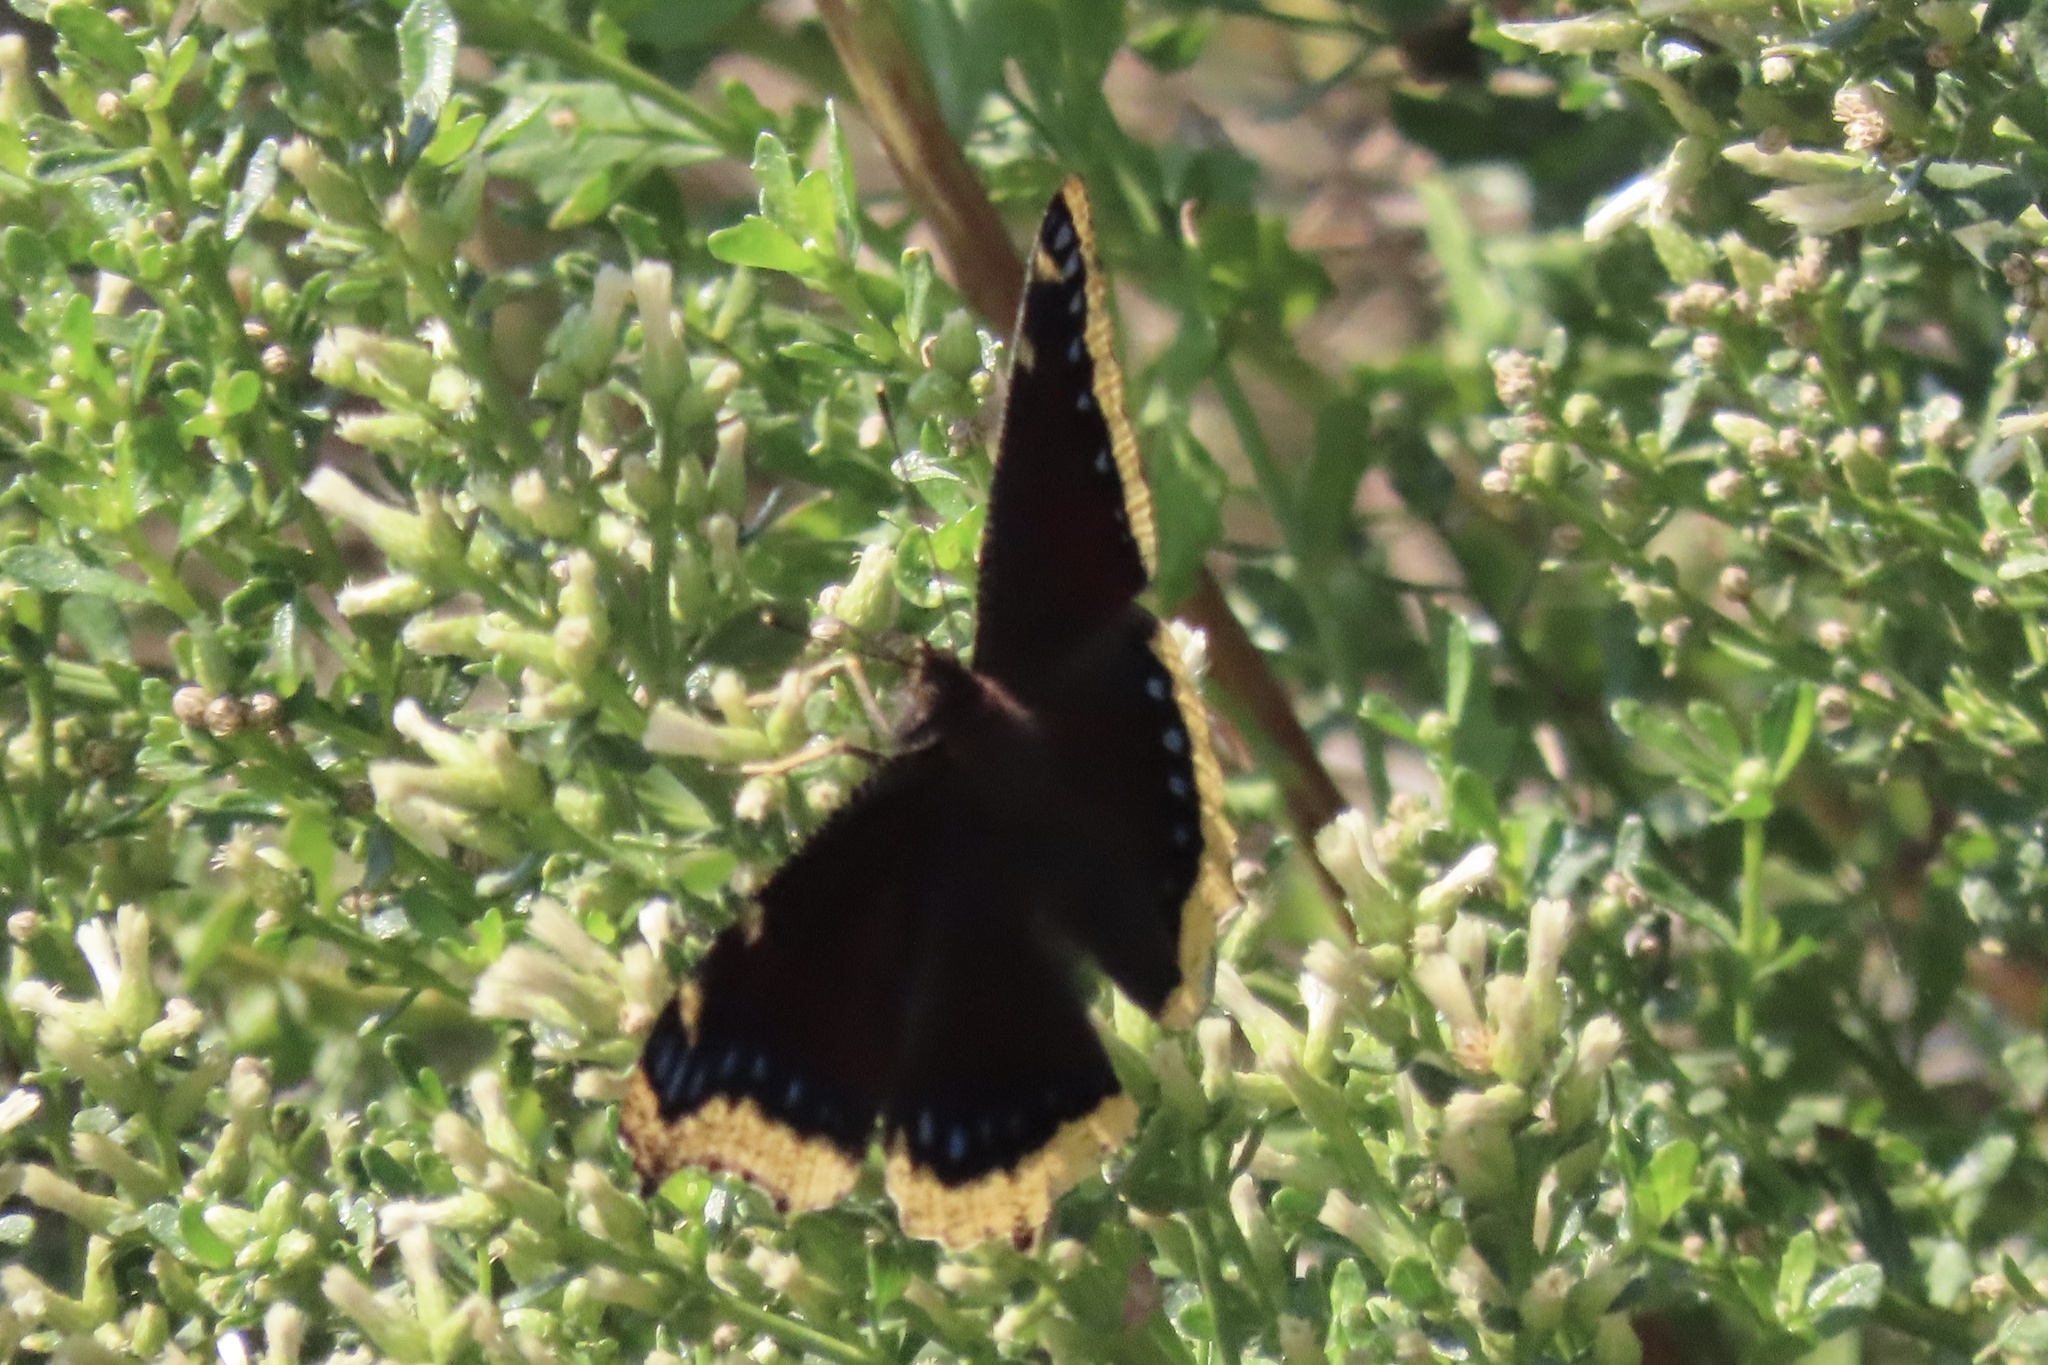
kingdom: Animalia
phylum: Arthropoda
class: Insecta
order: Lepidoptera
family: Nymphalidae
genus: Nymphalis
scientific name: Nymphalis antiopa
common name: Camberwell beauty
